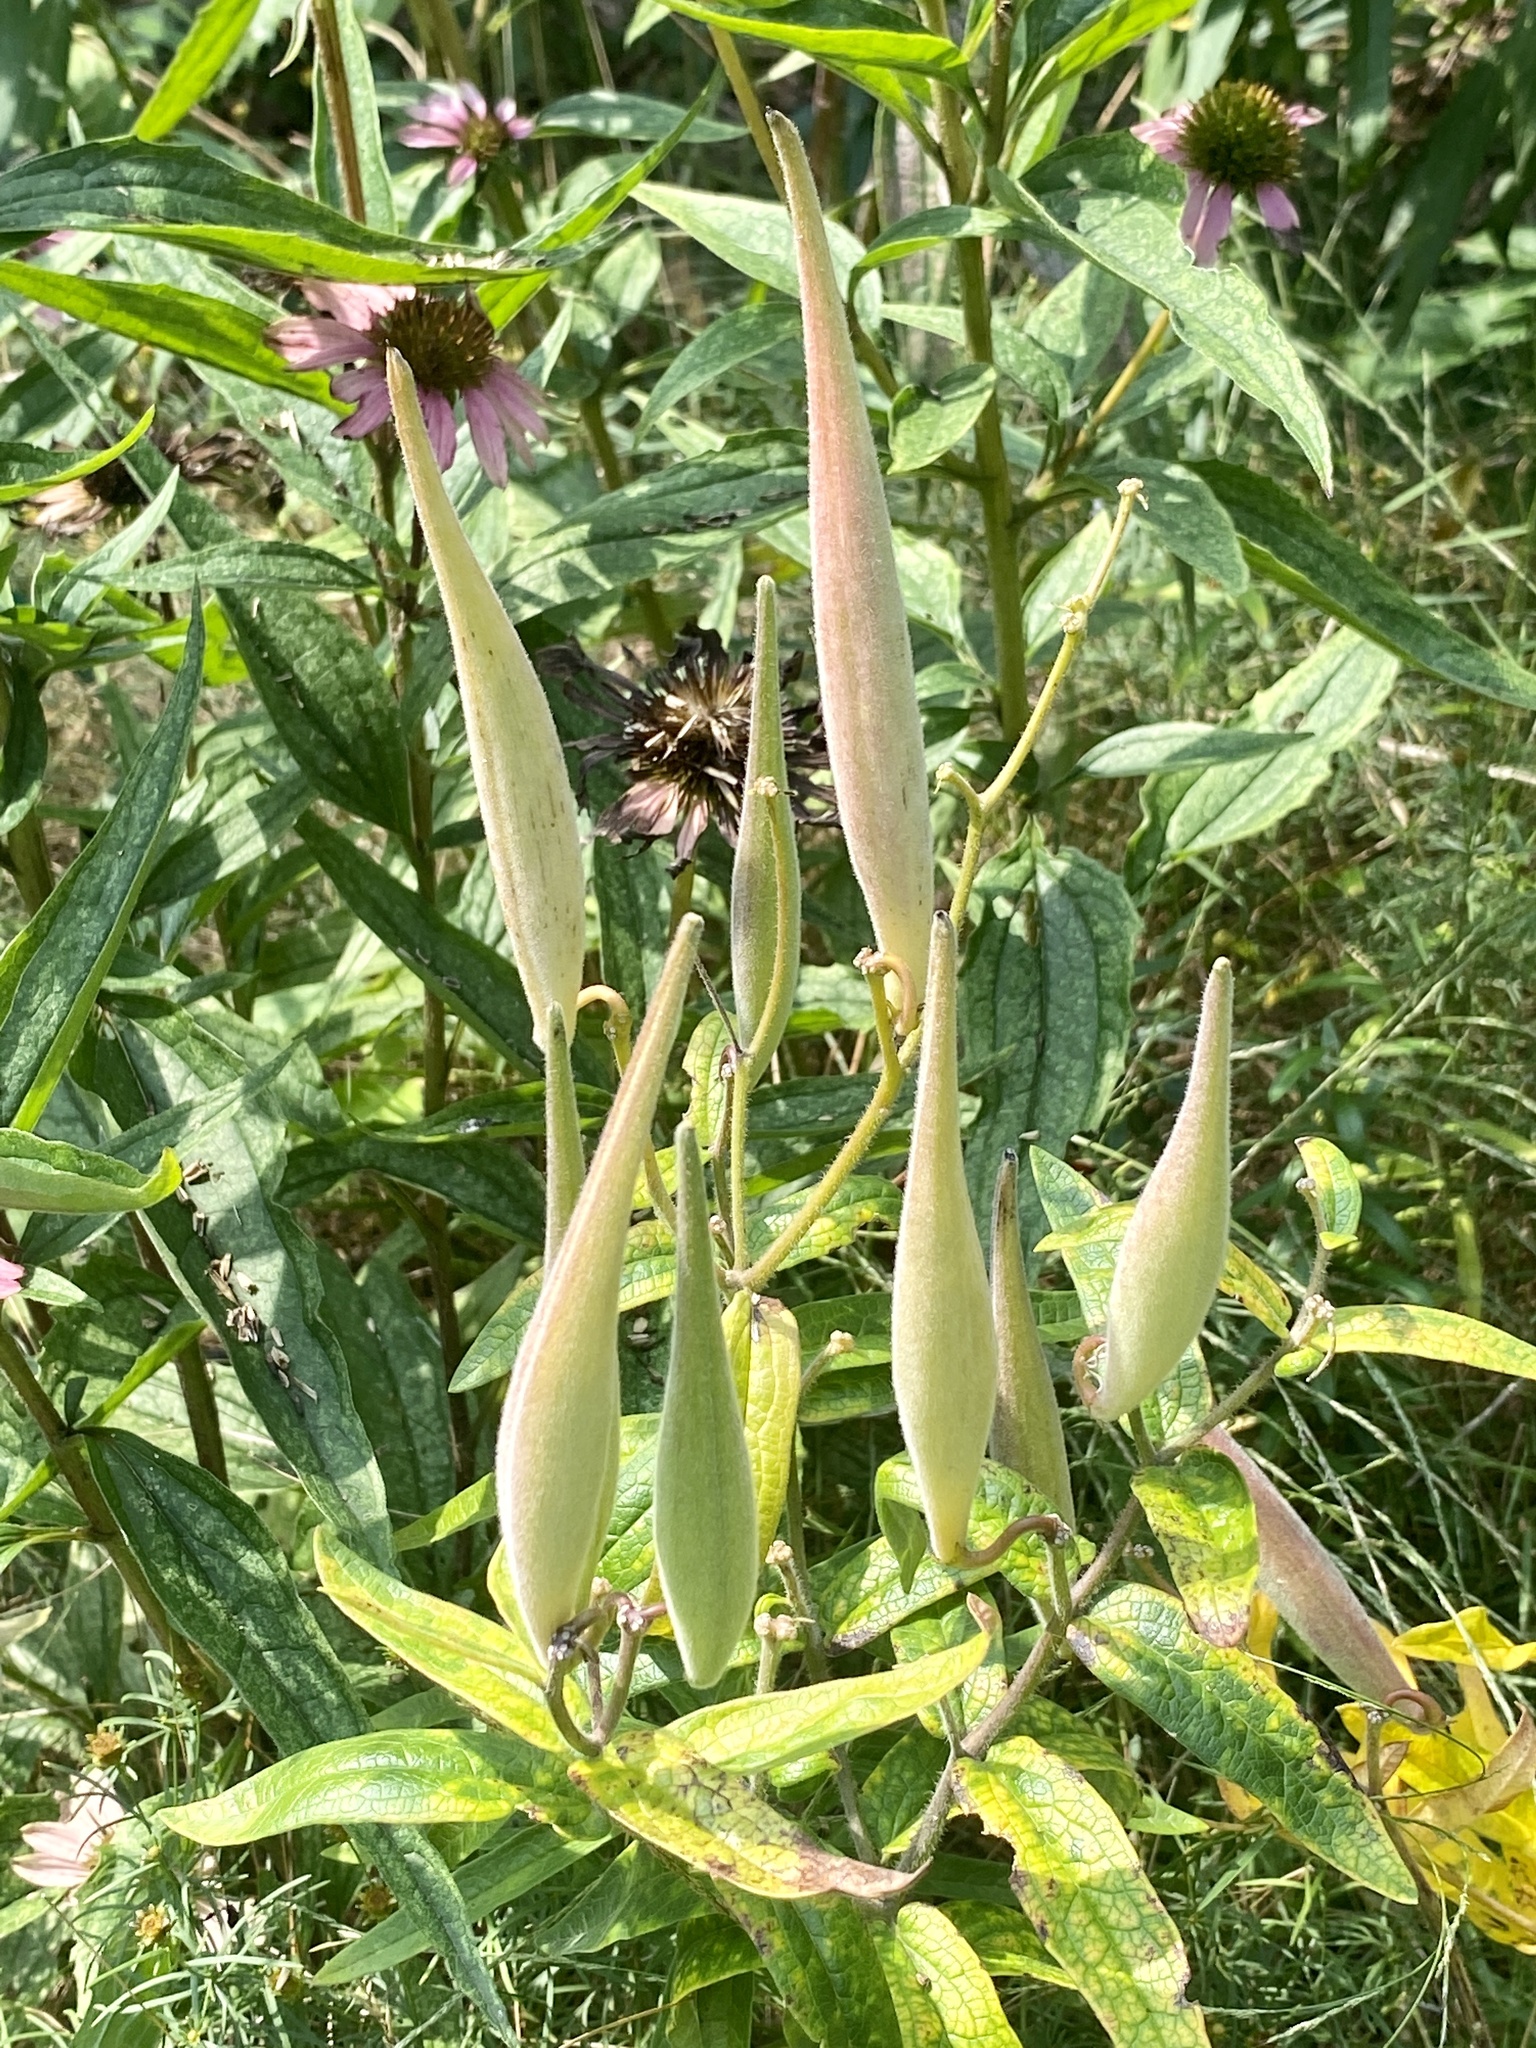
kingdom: Plantae
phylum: Tracheophyta
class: Magnoliopsida
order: Gentianales
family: Apocynaceae
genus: Asclepias
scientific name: Asclepias tuberosa
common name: Butterfly milkweed
